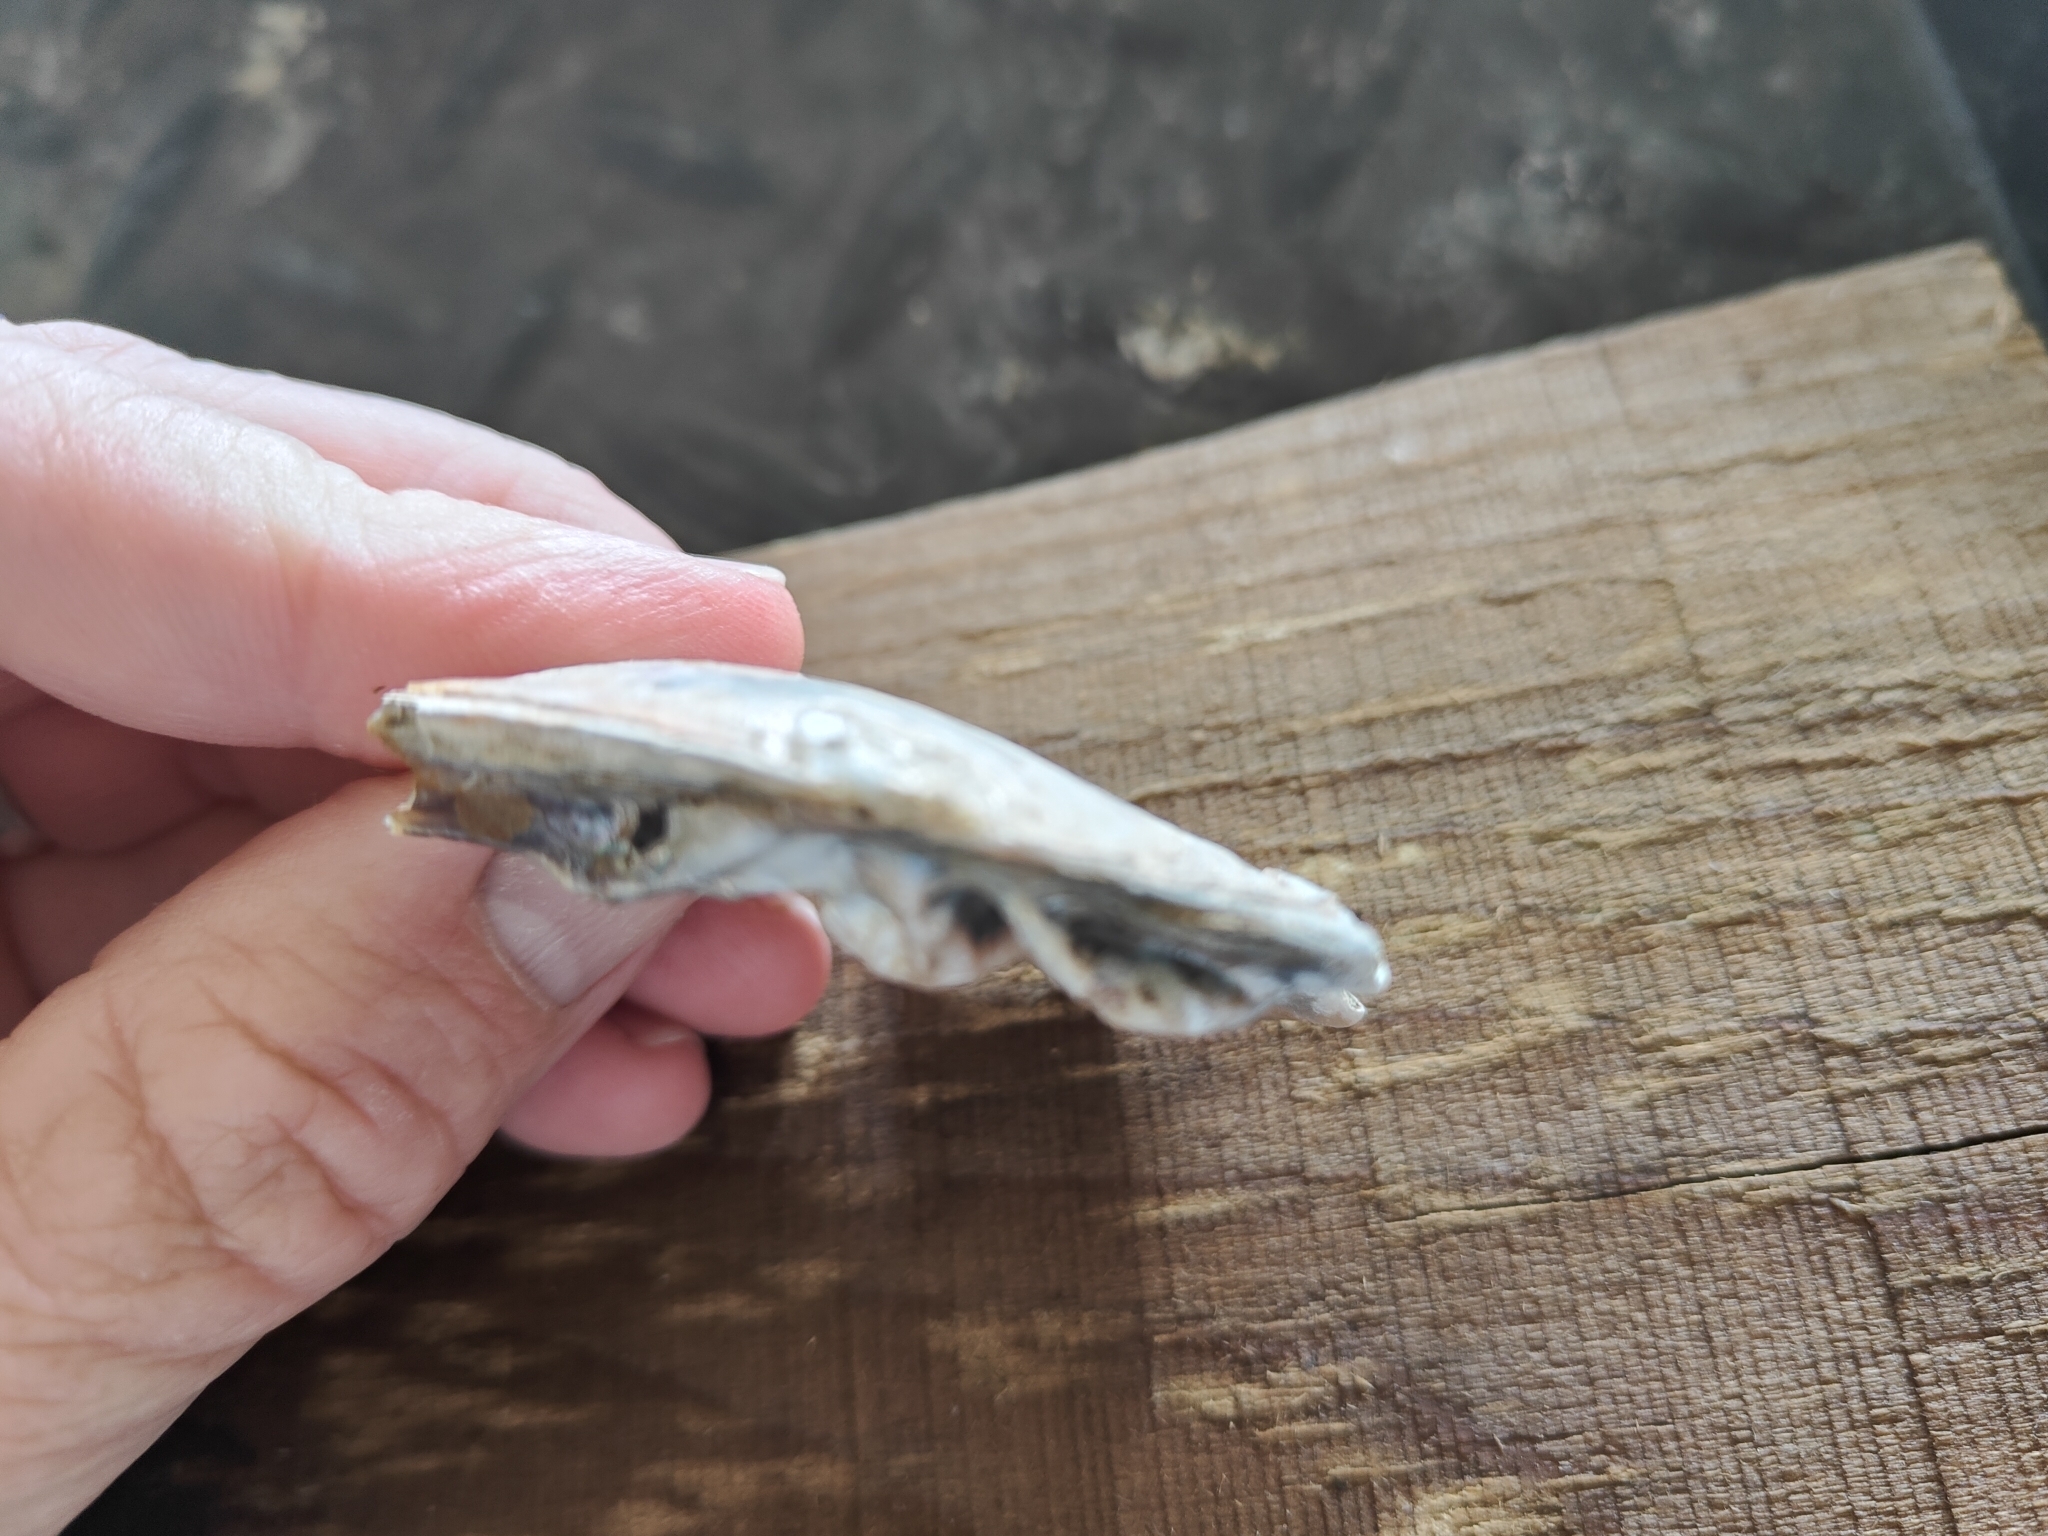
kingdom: Animalia
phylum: Mollusca
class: Bivalvia
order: Unionida
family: Unionidae
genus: Lasmigona
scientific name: Lasmigona complanata
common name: White heelsplitter
